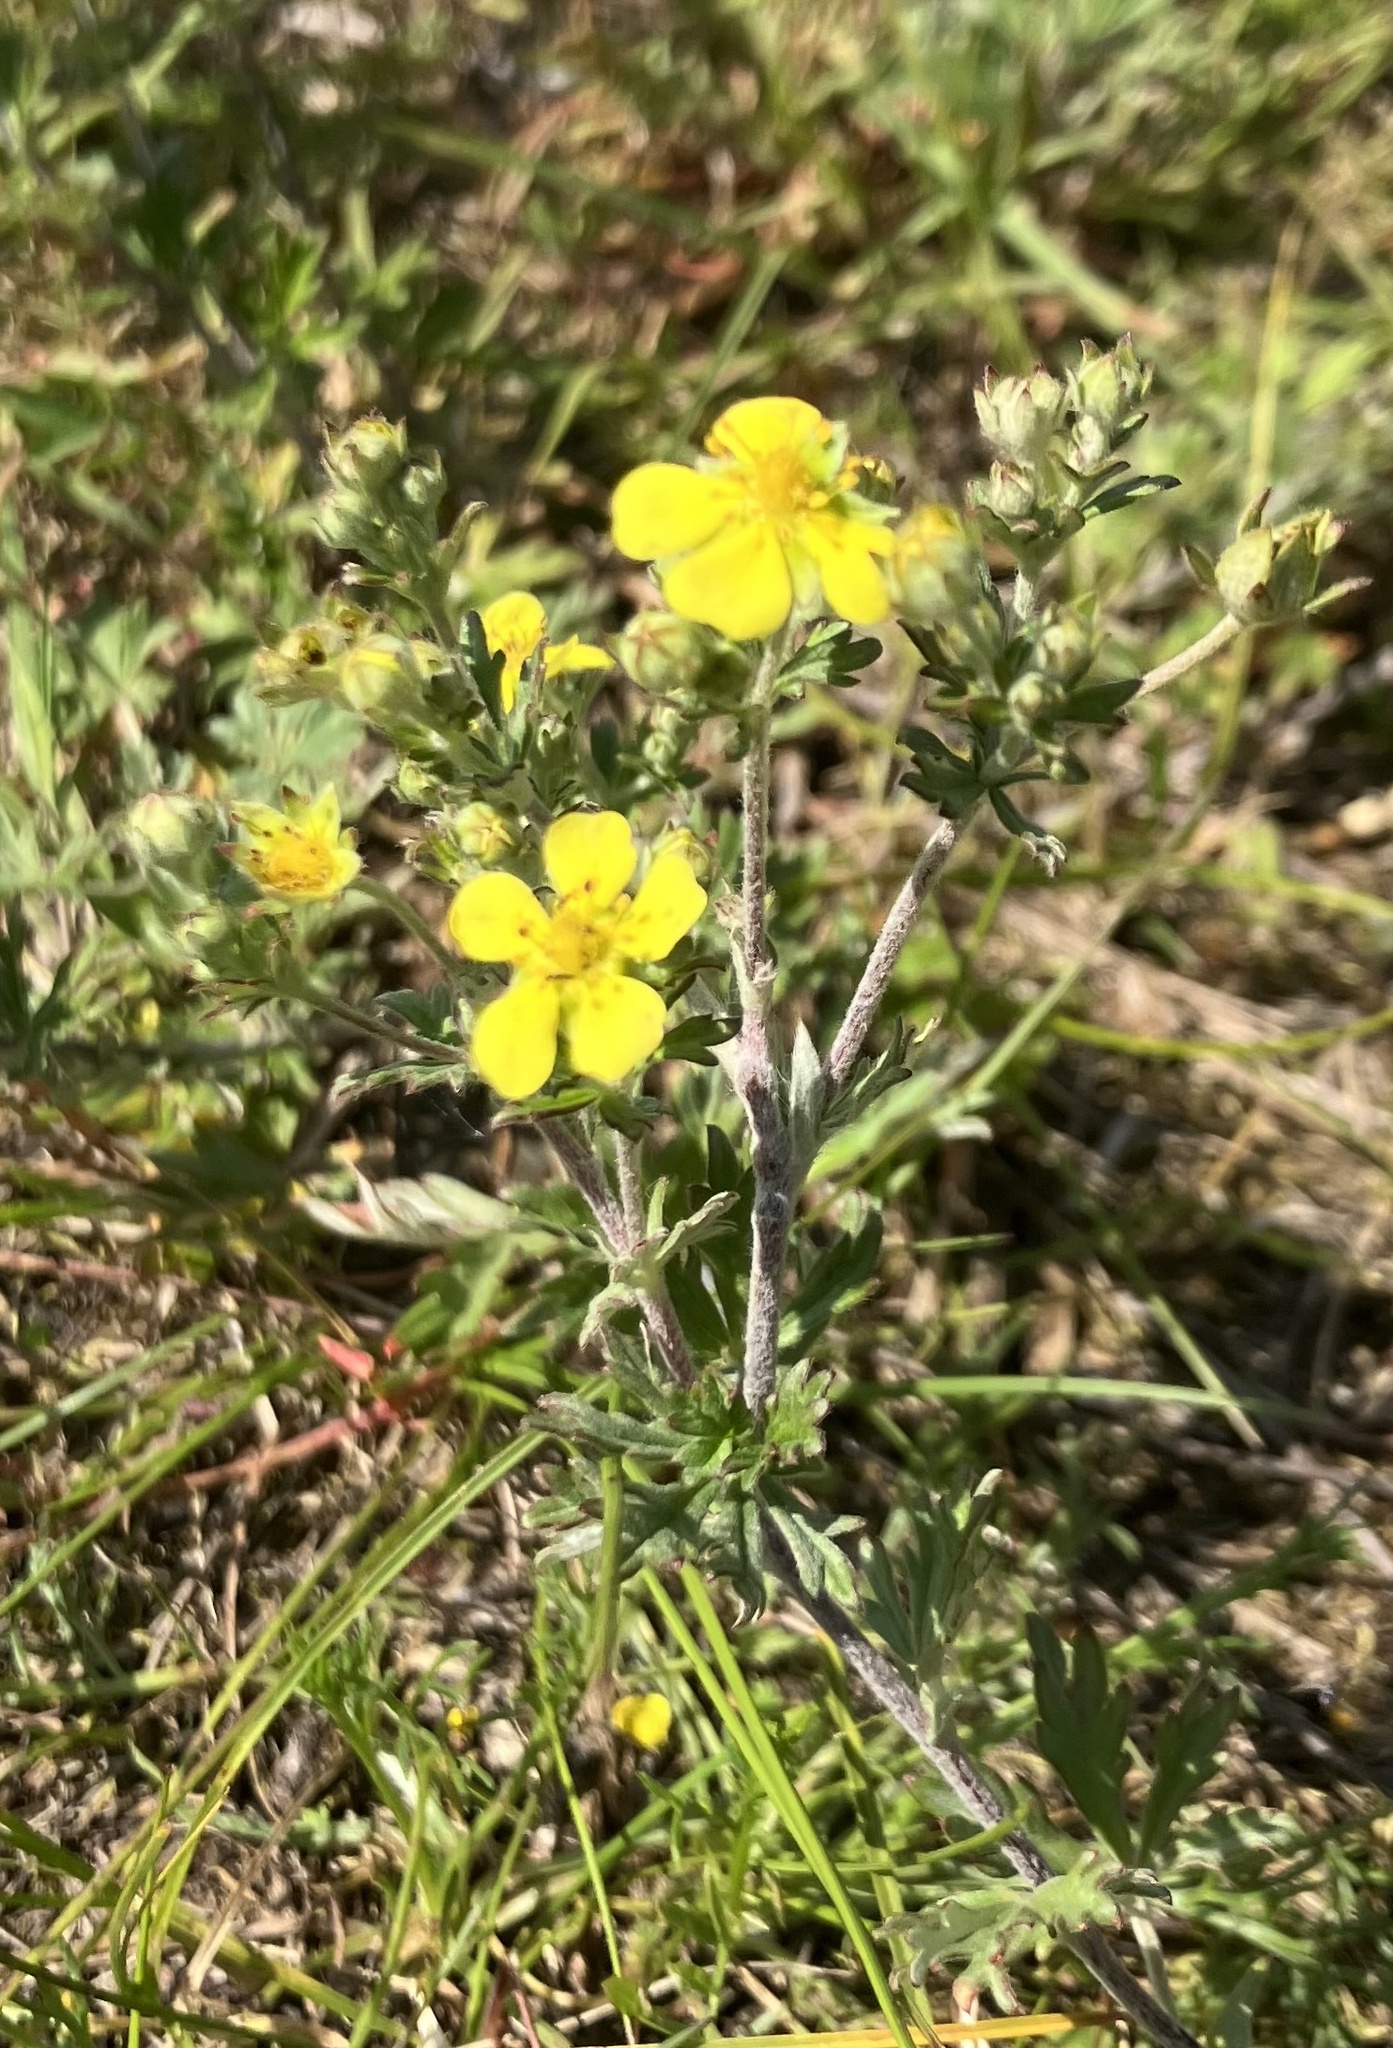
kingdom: Plantae
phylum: Tracheophyta
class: Magnoliopsida
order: Rosales
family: Rosaceae
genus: Potentilla
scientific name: Potentilla argentea
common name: Hoary cinquefoil
